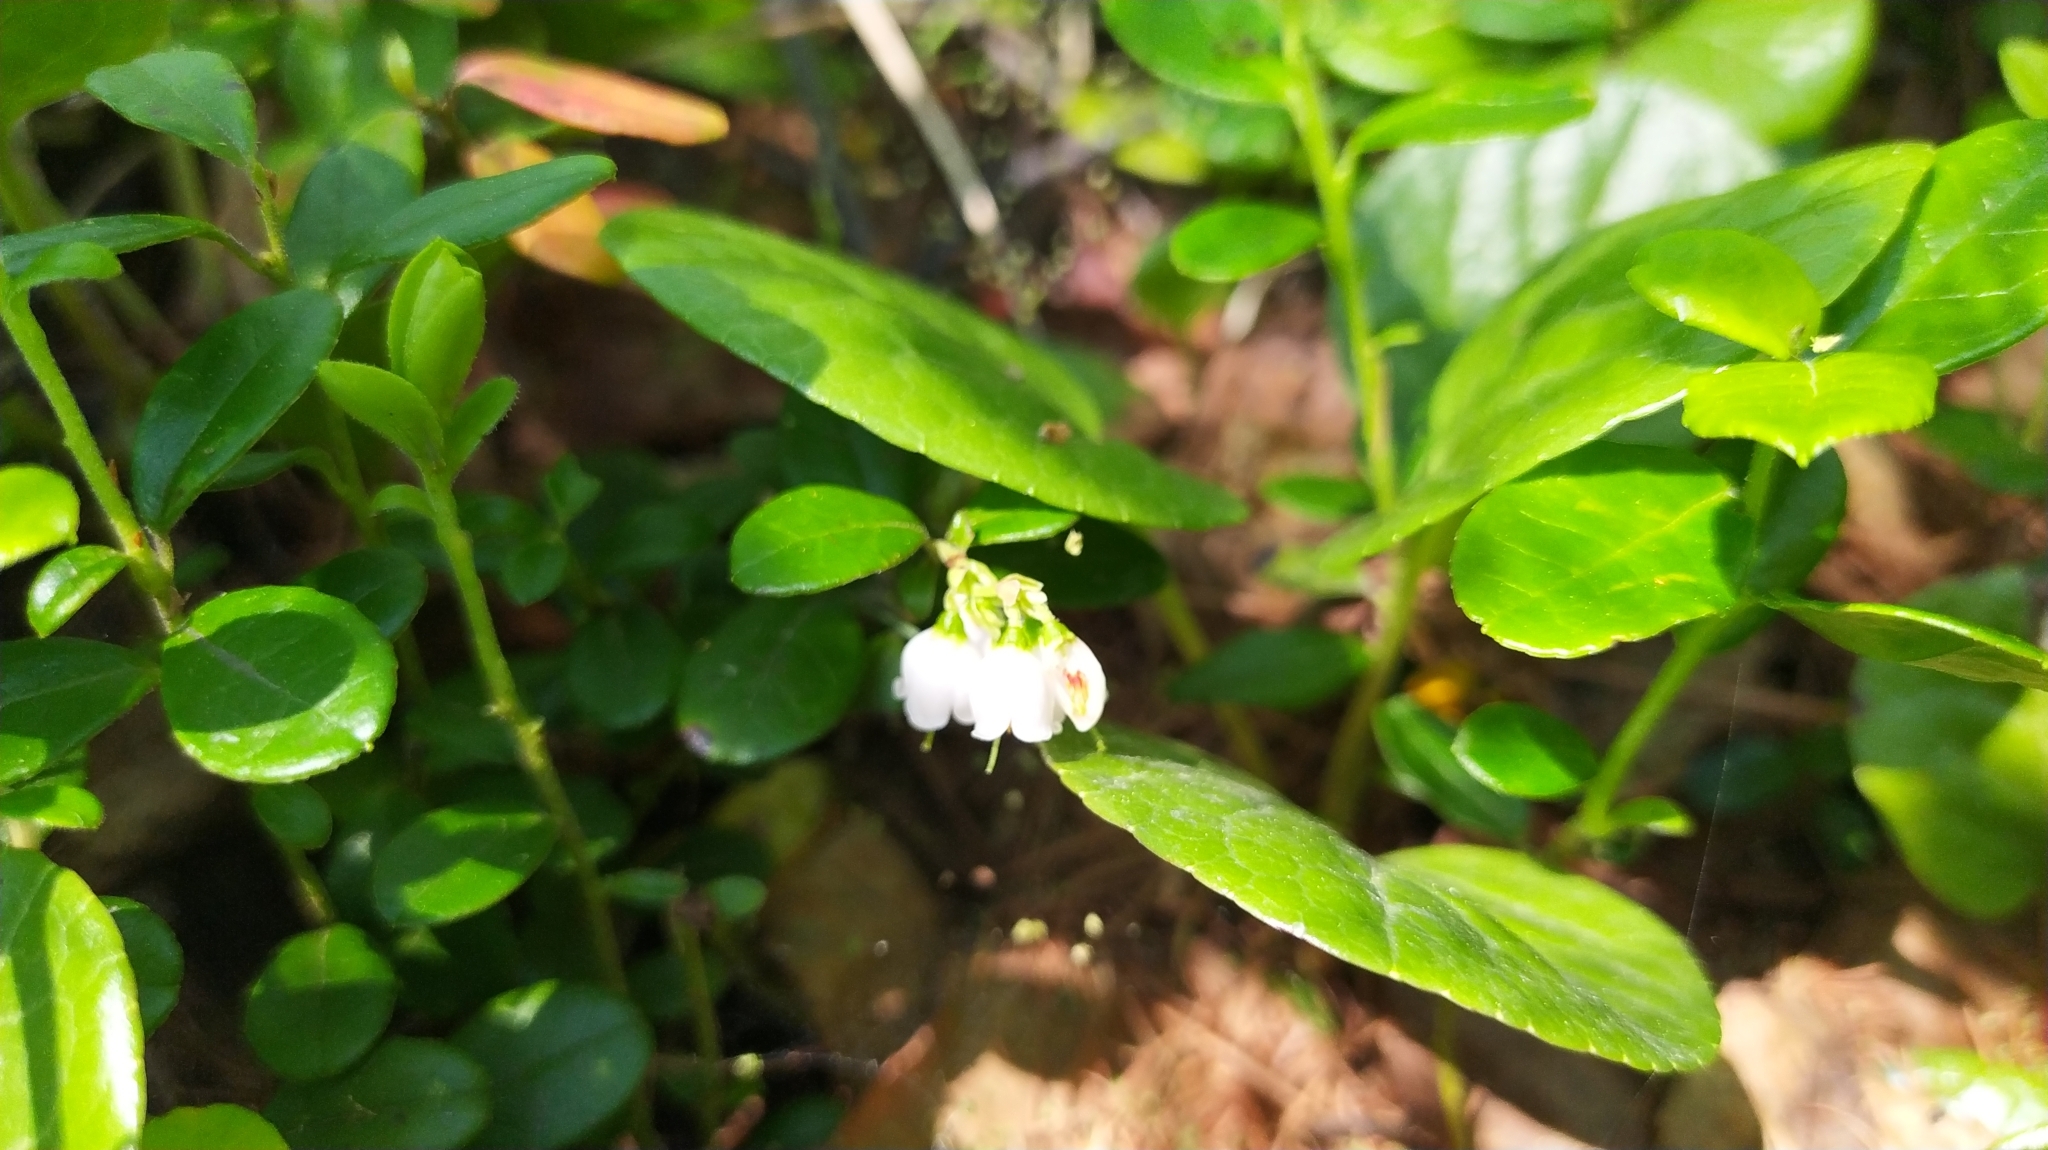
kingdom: Plantae
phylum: Tracheophyta
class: Magnoliopsida
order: Ericales
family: Ericaceae
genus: Vaccinium
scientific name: Vaccinium vitis-idaea
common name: Cowberry
